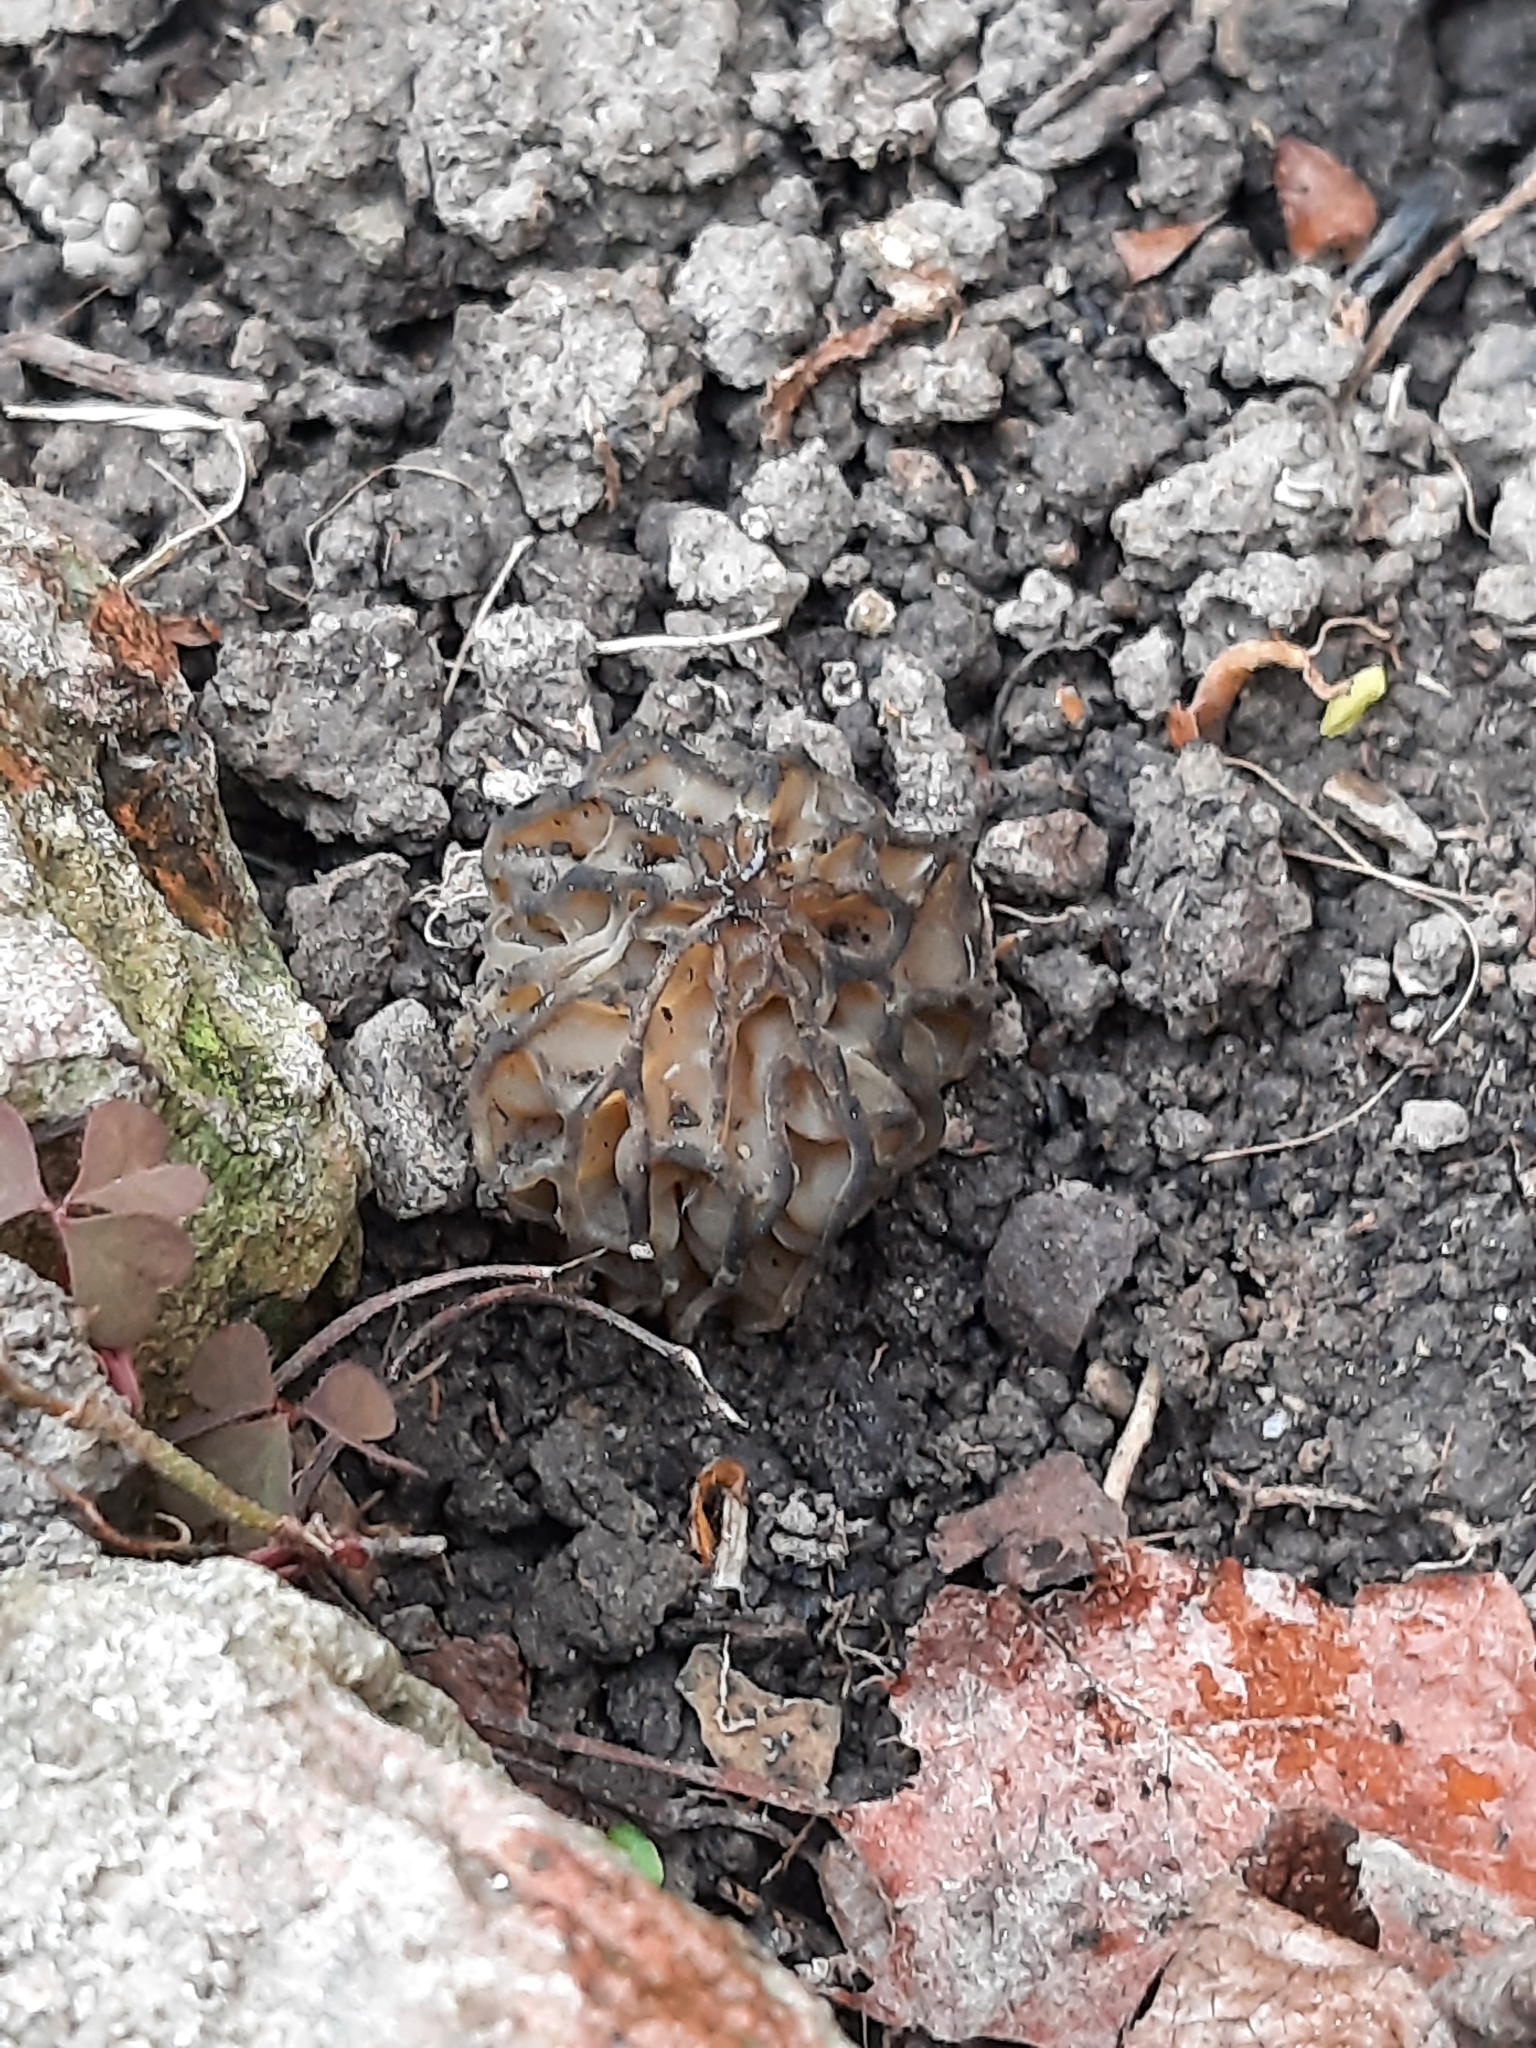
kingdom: Fungi
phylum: Ascomycota
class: Pezizomycetes
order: Pezizales
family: Morchellaceae
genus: Morchella
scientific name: Morchella semilibera
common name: Semifree morel
